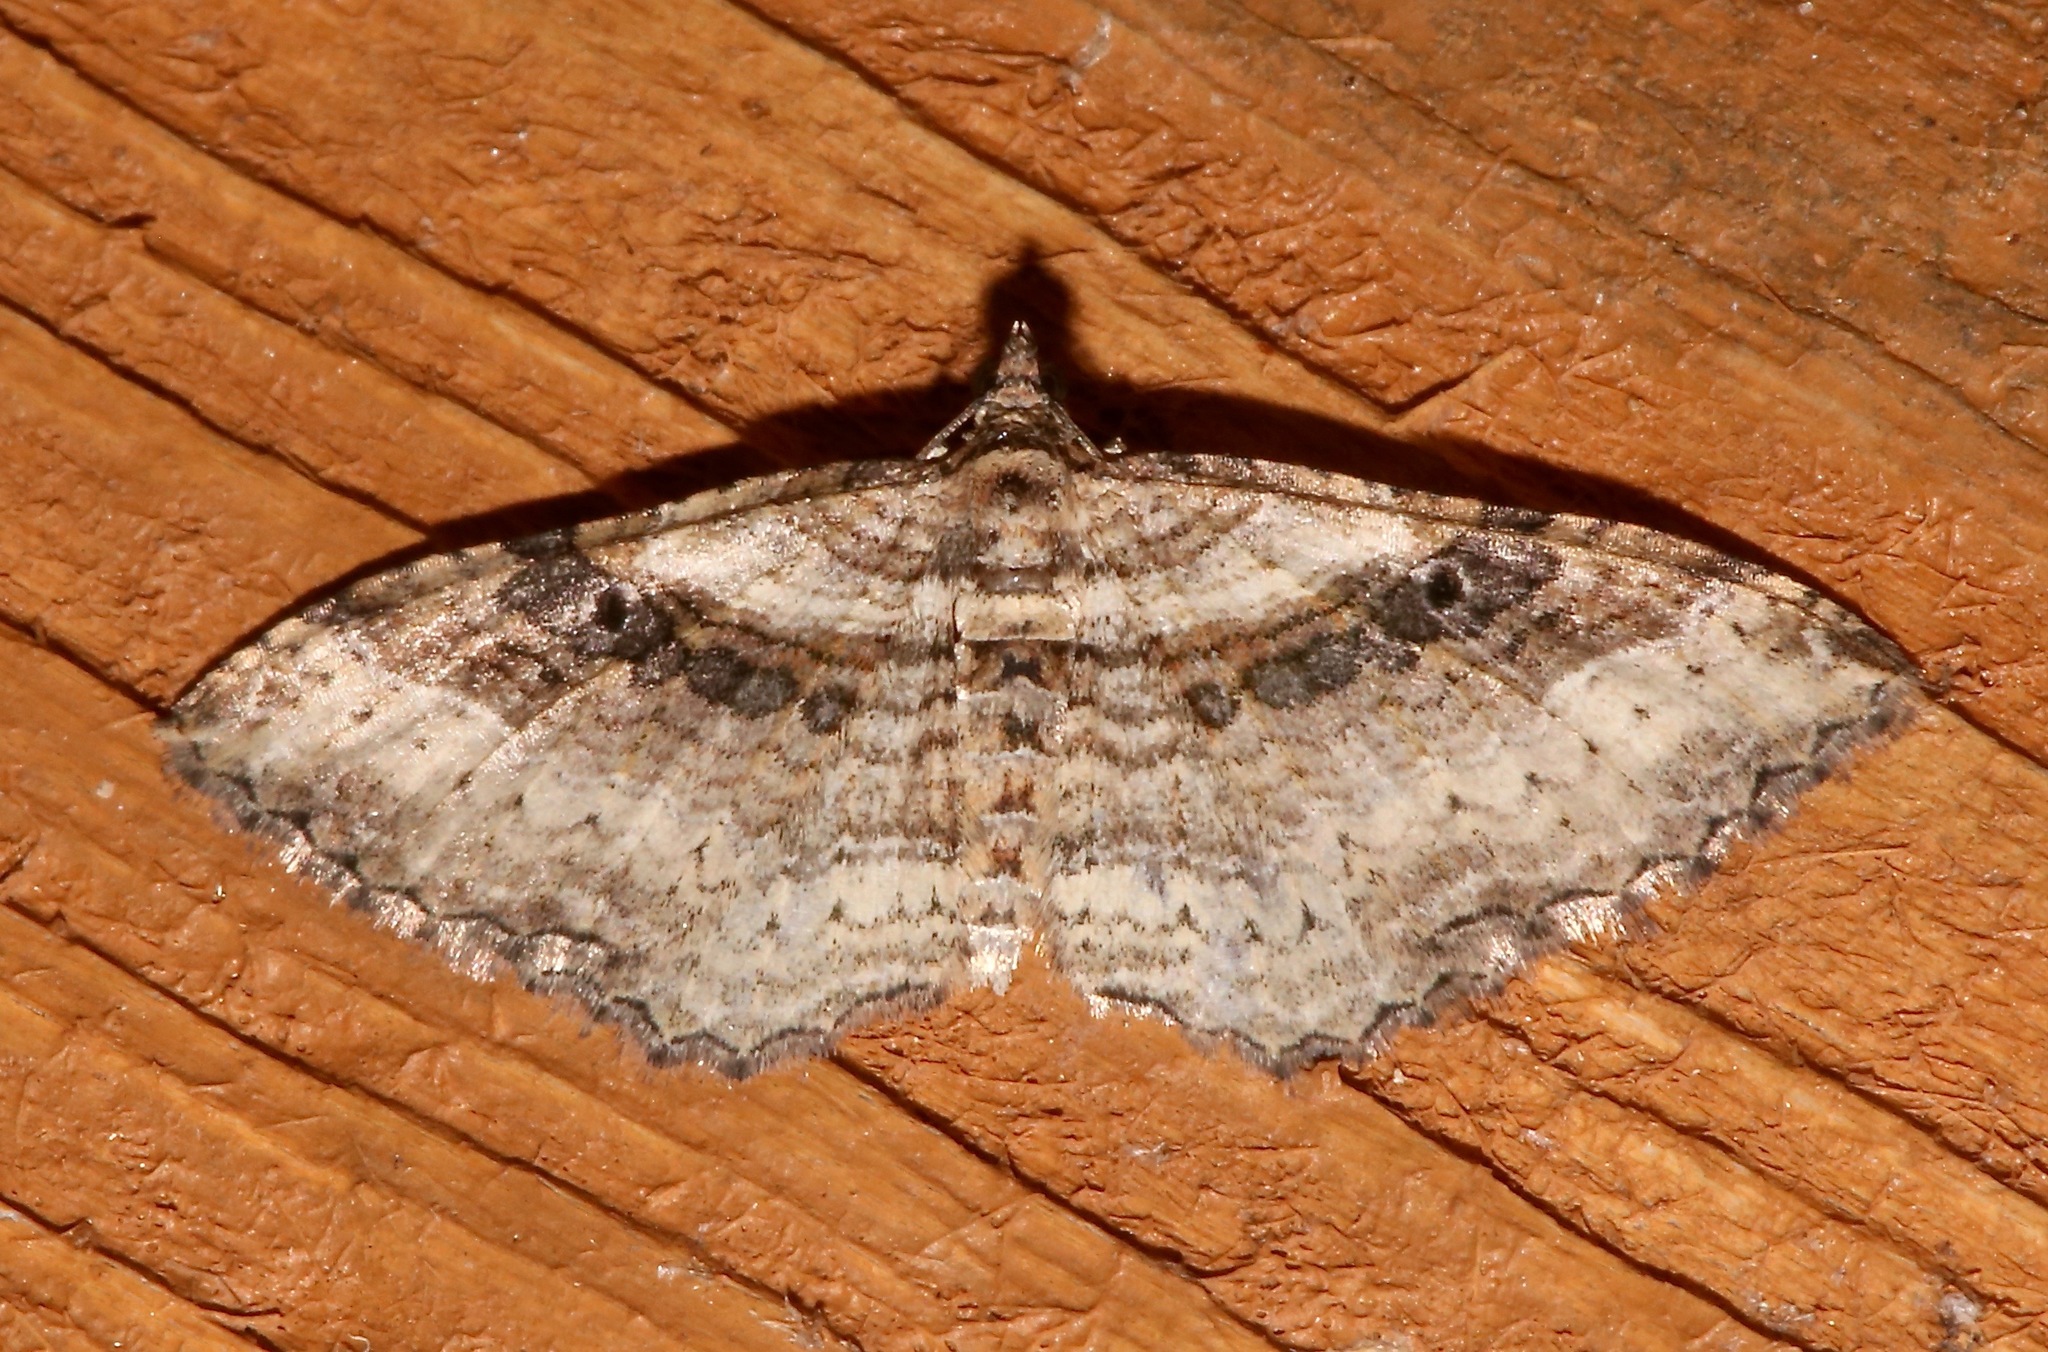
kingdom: Animalia
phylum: Arthropoda
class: Insecta
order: Lepidoptera
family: Geometridae
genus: Costaconvexa
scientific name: Costaconvexa centrostrigaria
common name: Bent-line carpet
